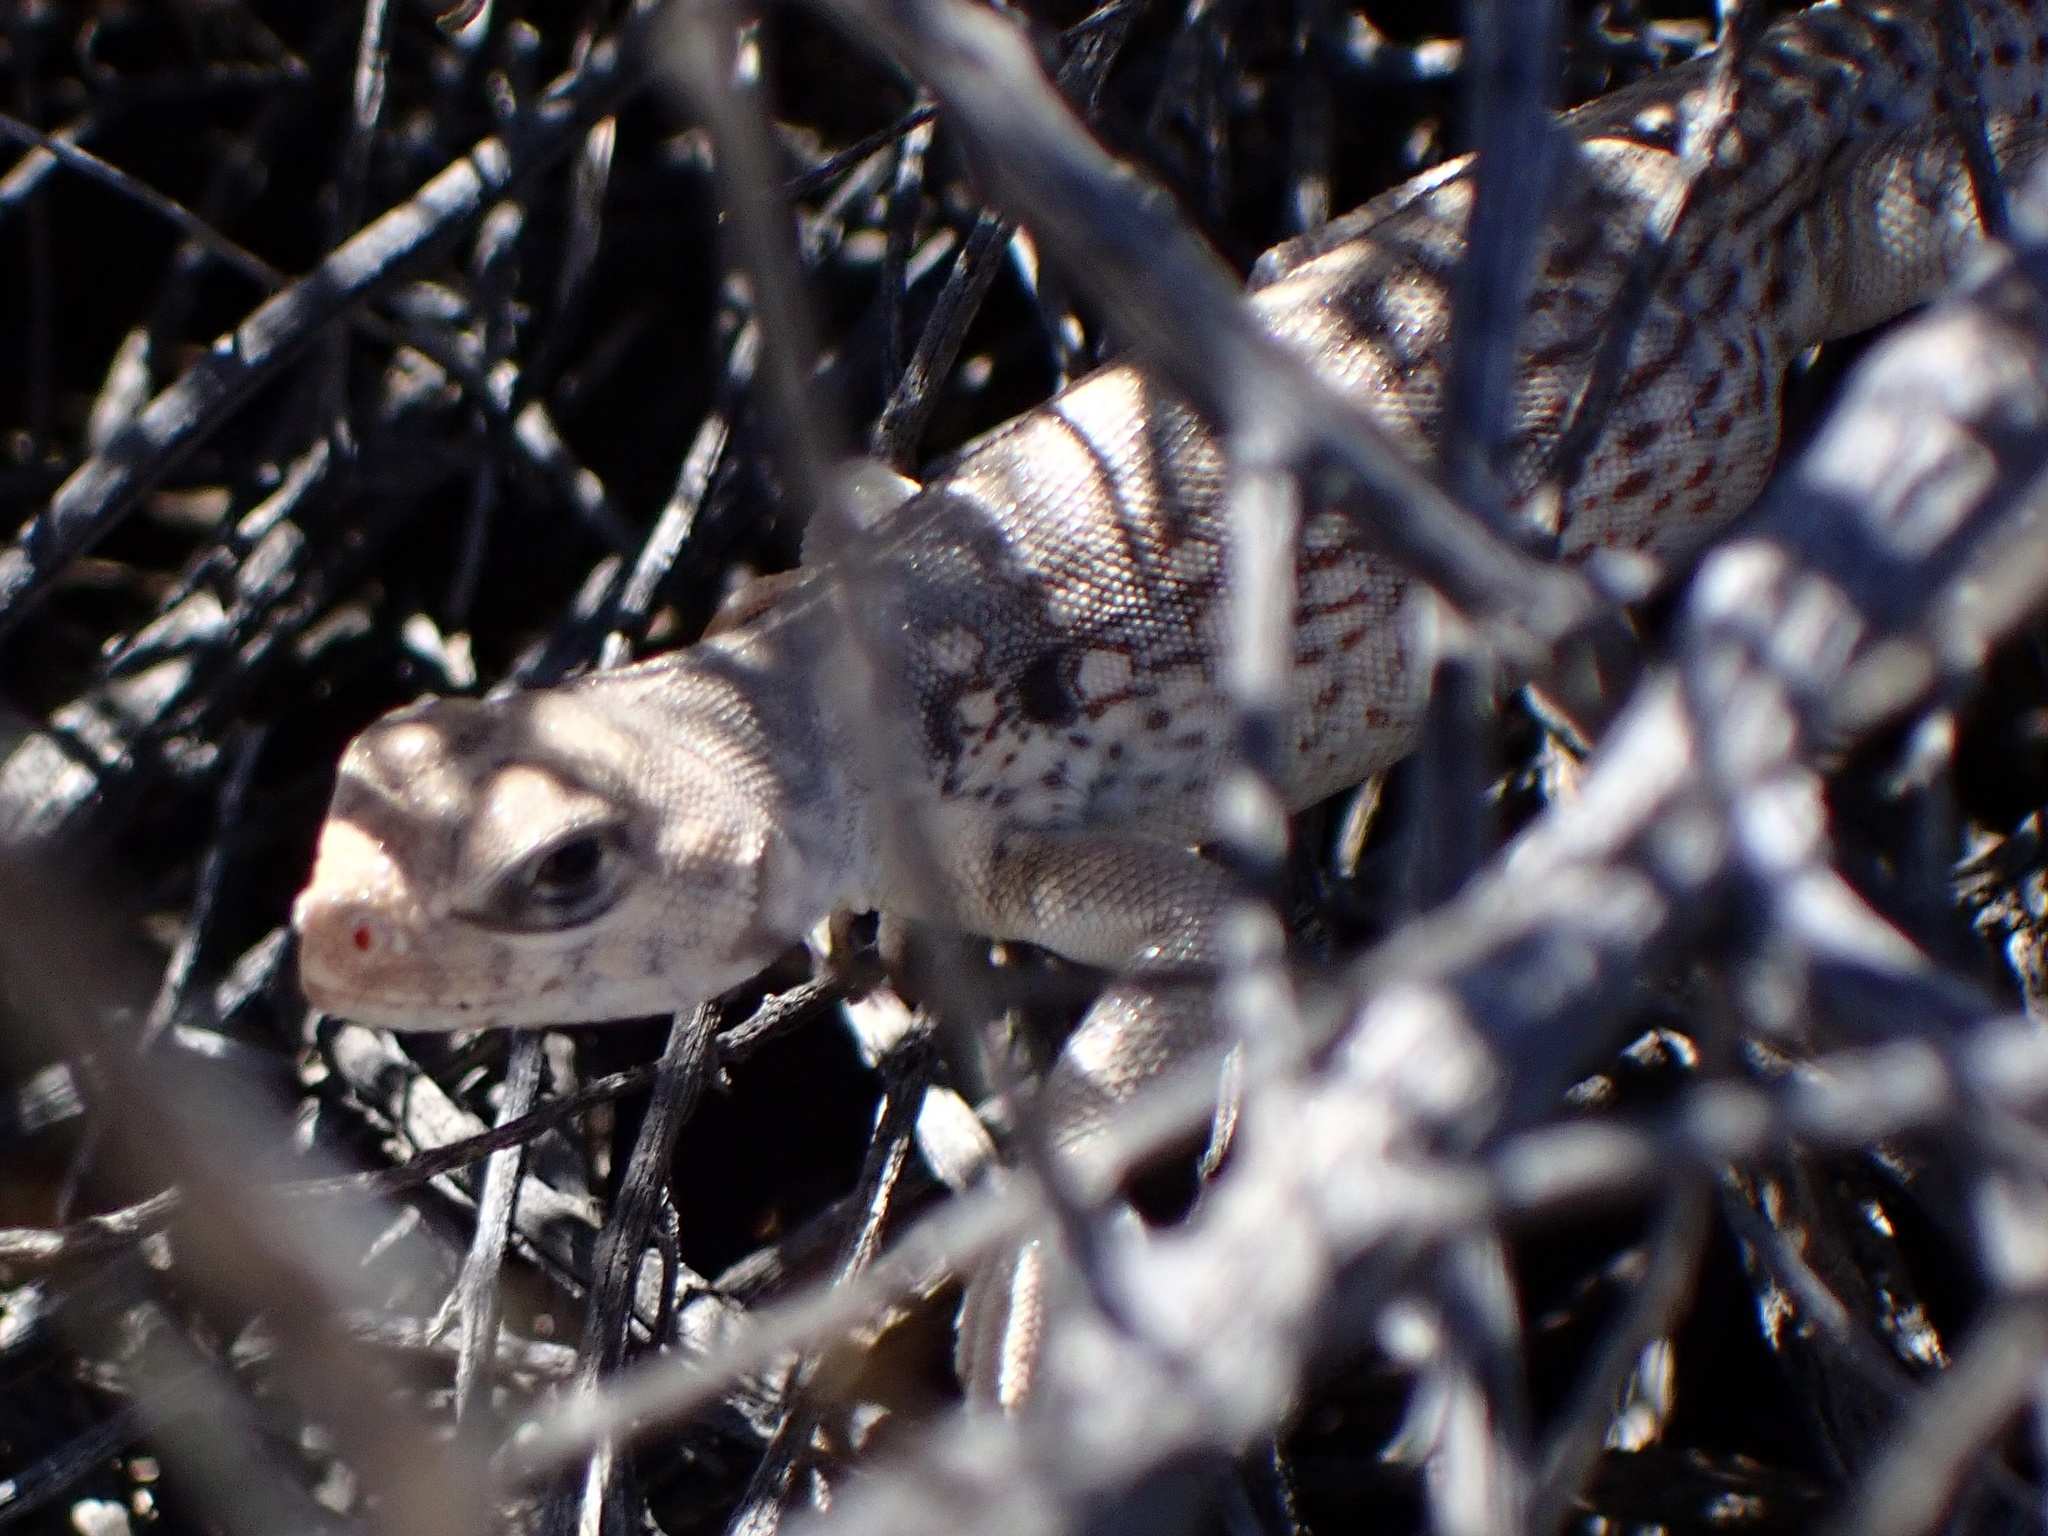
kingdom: Animalia
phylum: Chordata
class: Squamata
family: Iguanidae
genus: Dipsosaurus
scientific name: Dipsosaurus dorsalis
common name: Desert iguana
